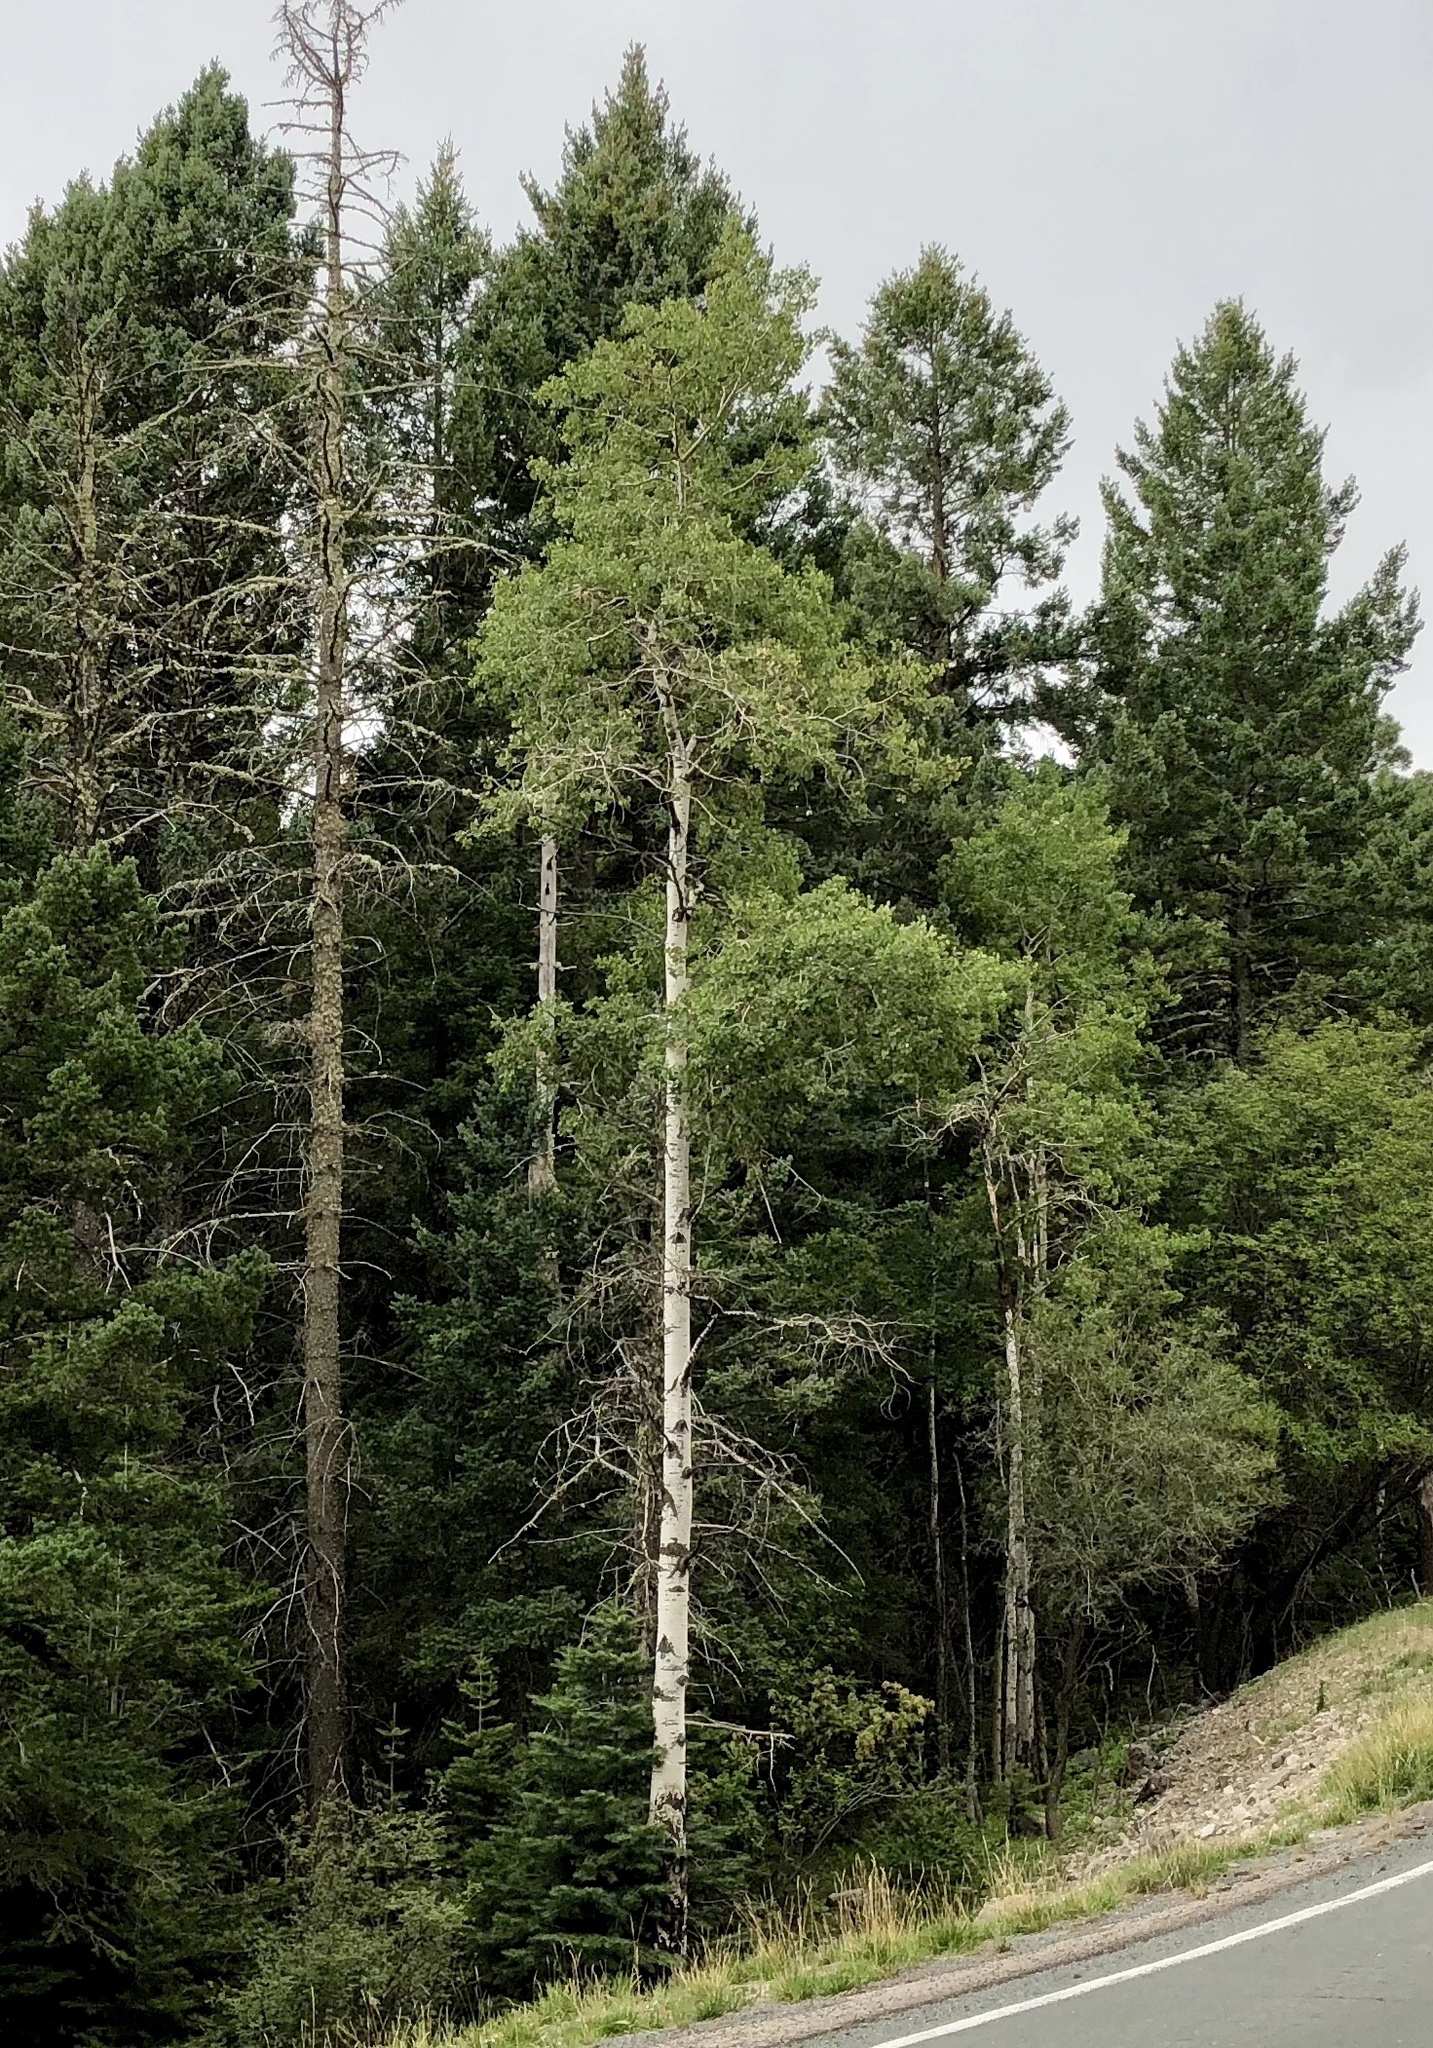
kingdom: Plantae
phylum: Tracheophyta
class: Magnoliopsida
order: Malpighiales
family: Salicaceae
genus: Populus
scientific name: Populus tremuloides
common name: Quaking aspen
